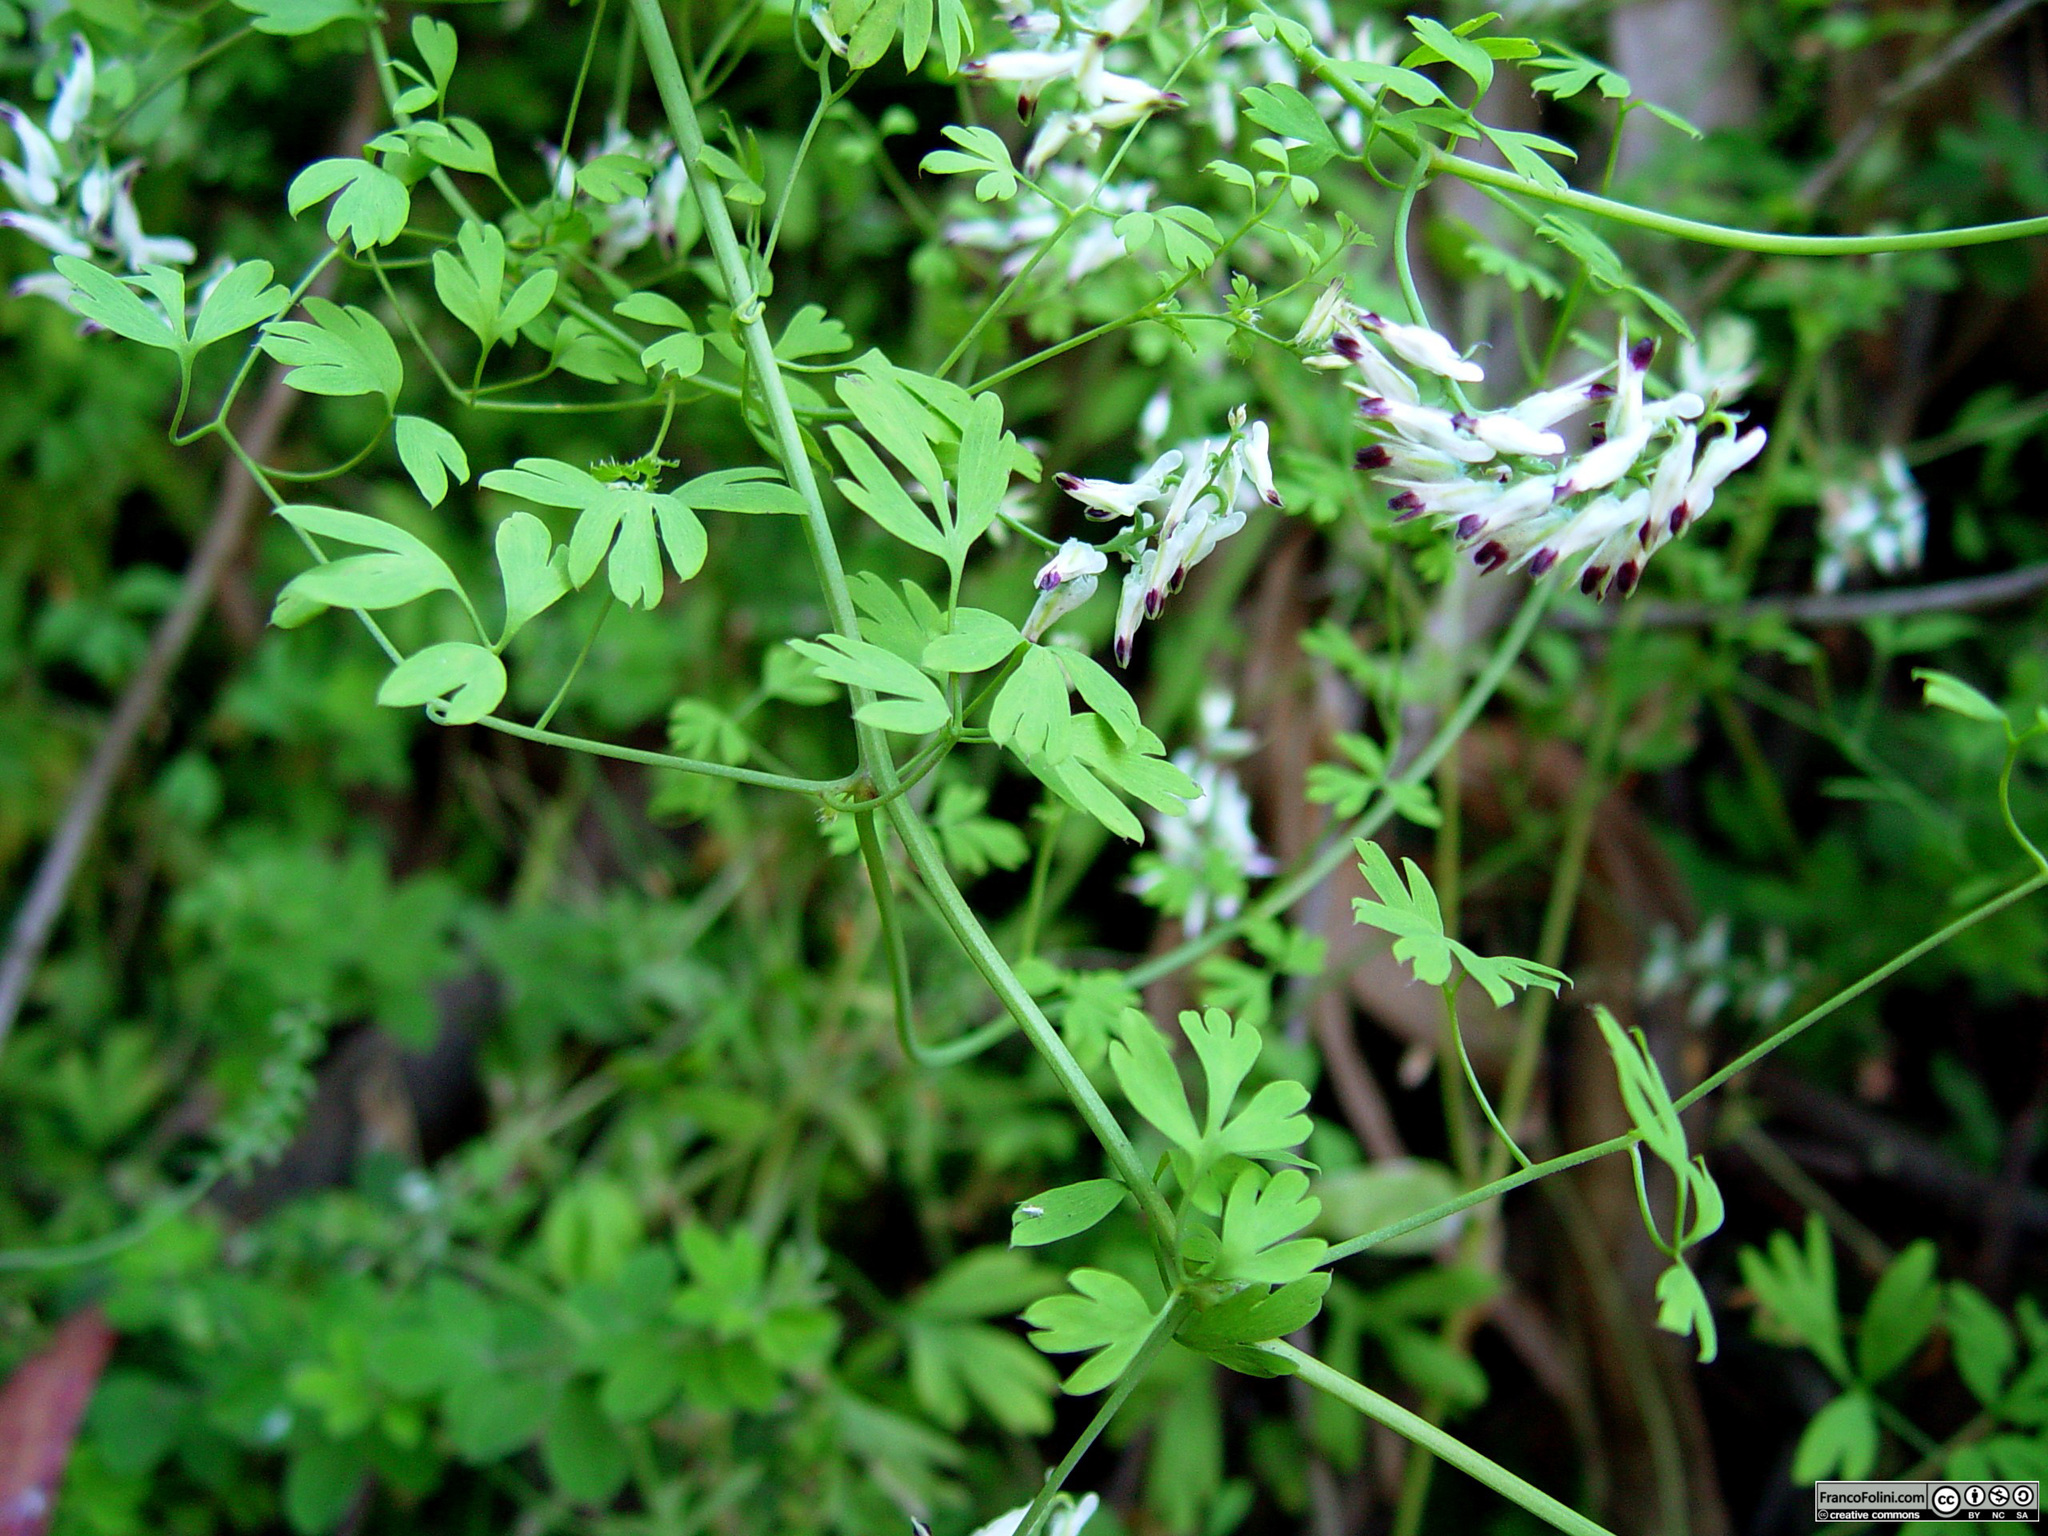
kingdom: Plantae
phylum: Tracheophyta
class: Magnoliopsida
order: Ranunculales
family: Papaveraceae
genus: Fumaria
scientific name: Fumaria capreolata
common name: White ramping-fumitory
